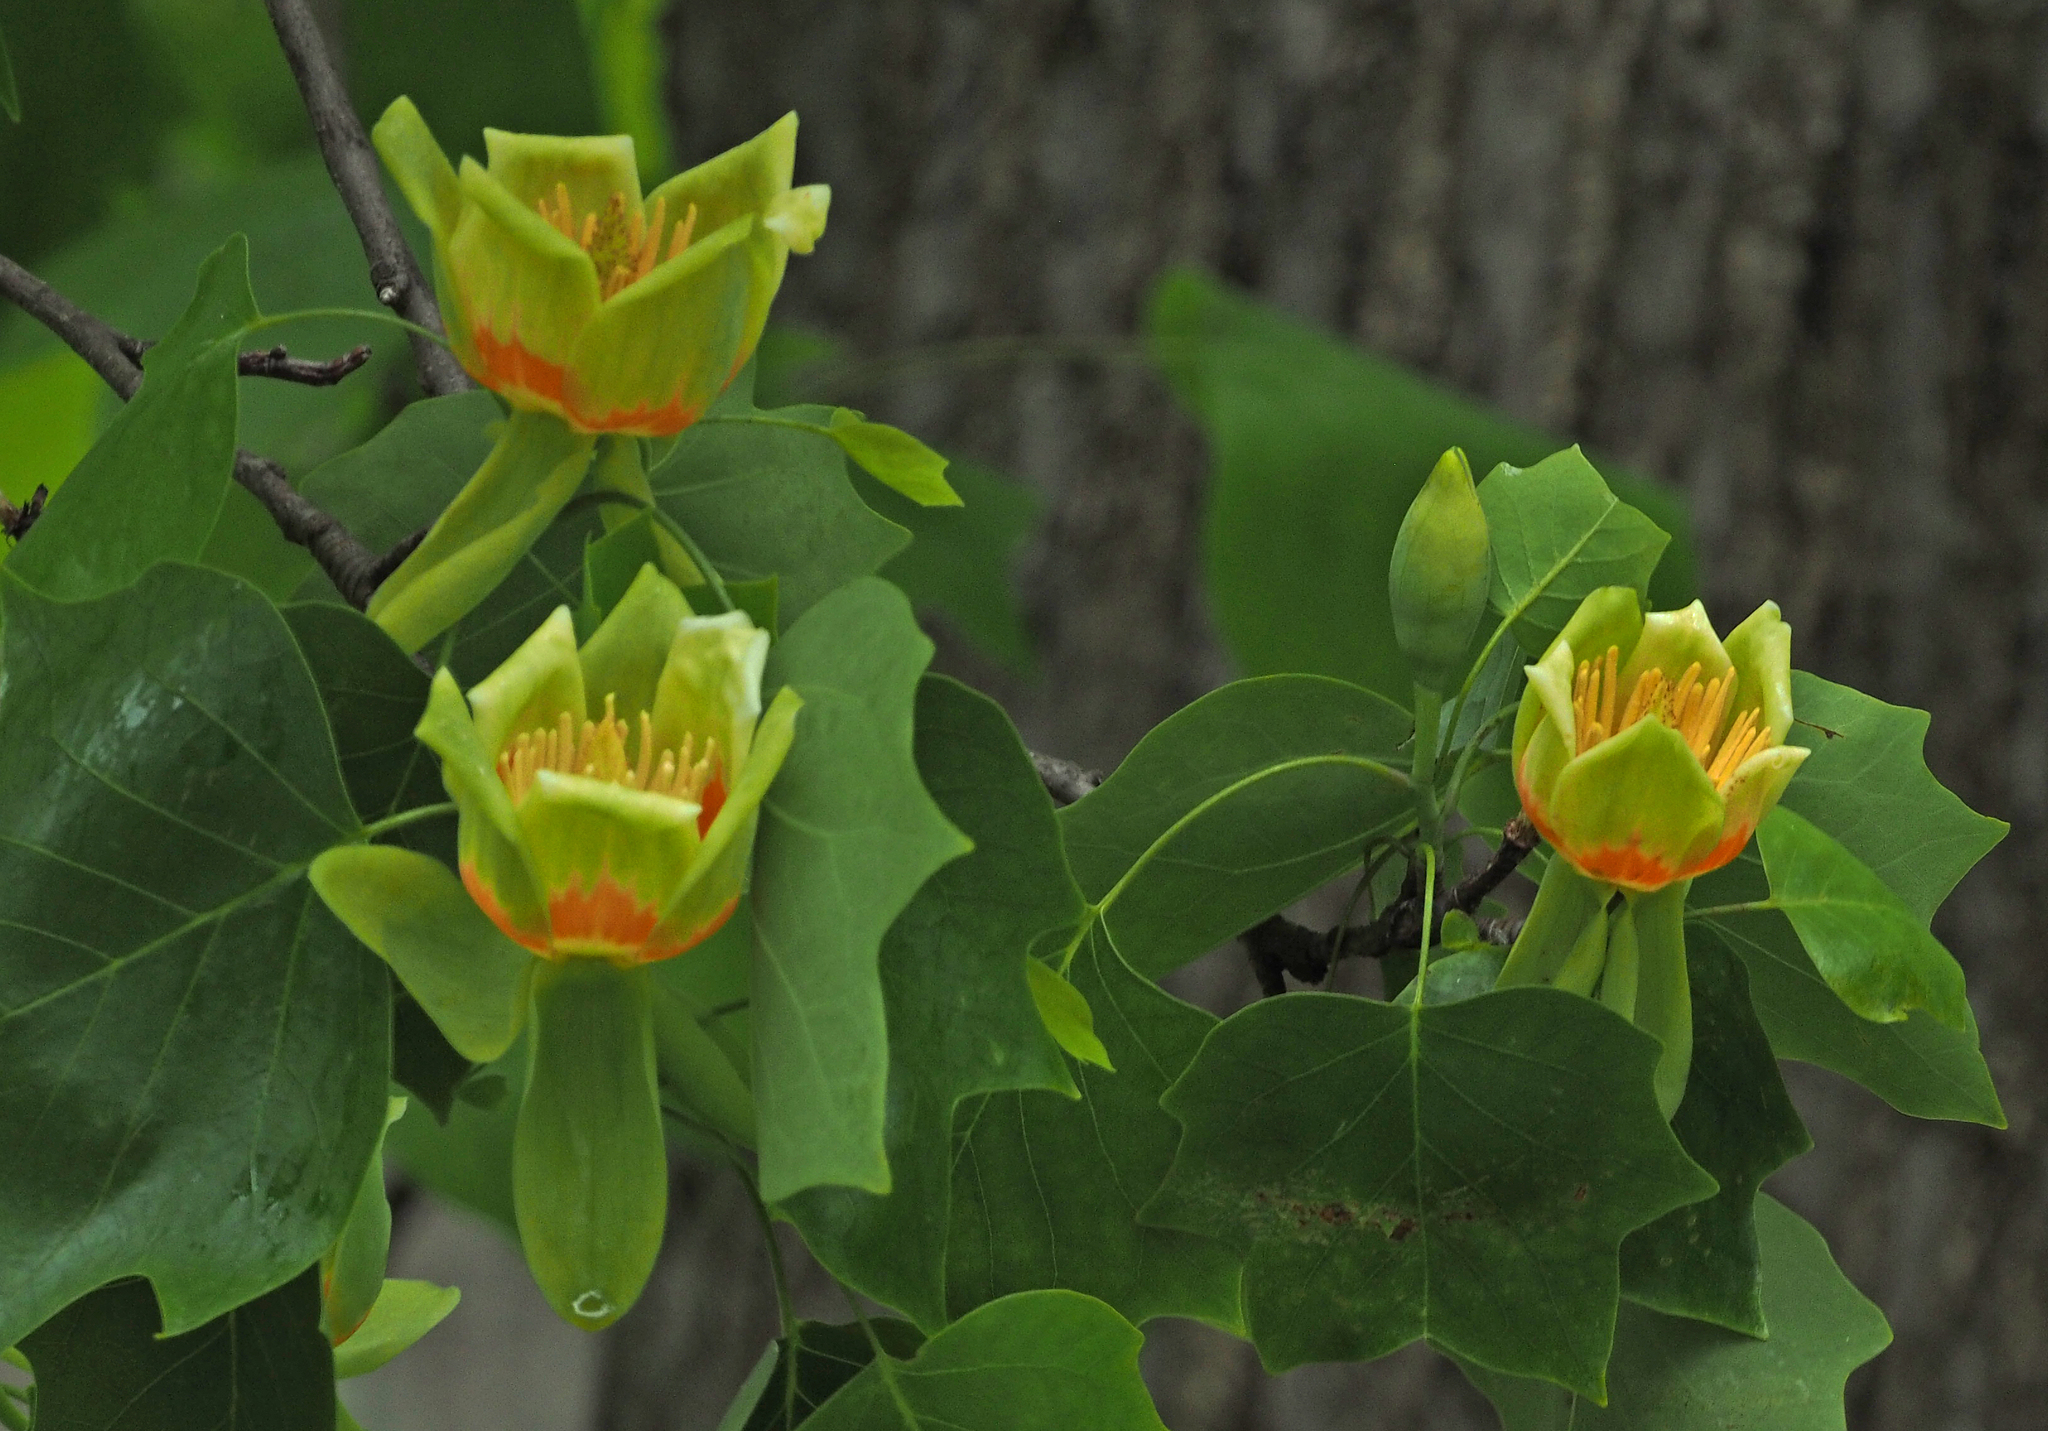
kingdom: Plantae
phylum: Tracheophyta
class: Magnoliopsida
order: Magnoliales
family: Magnoliaceae
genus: Liriodendron
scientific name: Liriodendron tulipifera
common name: Tulip tree
